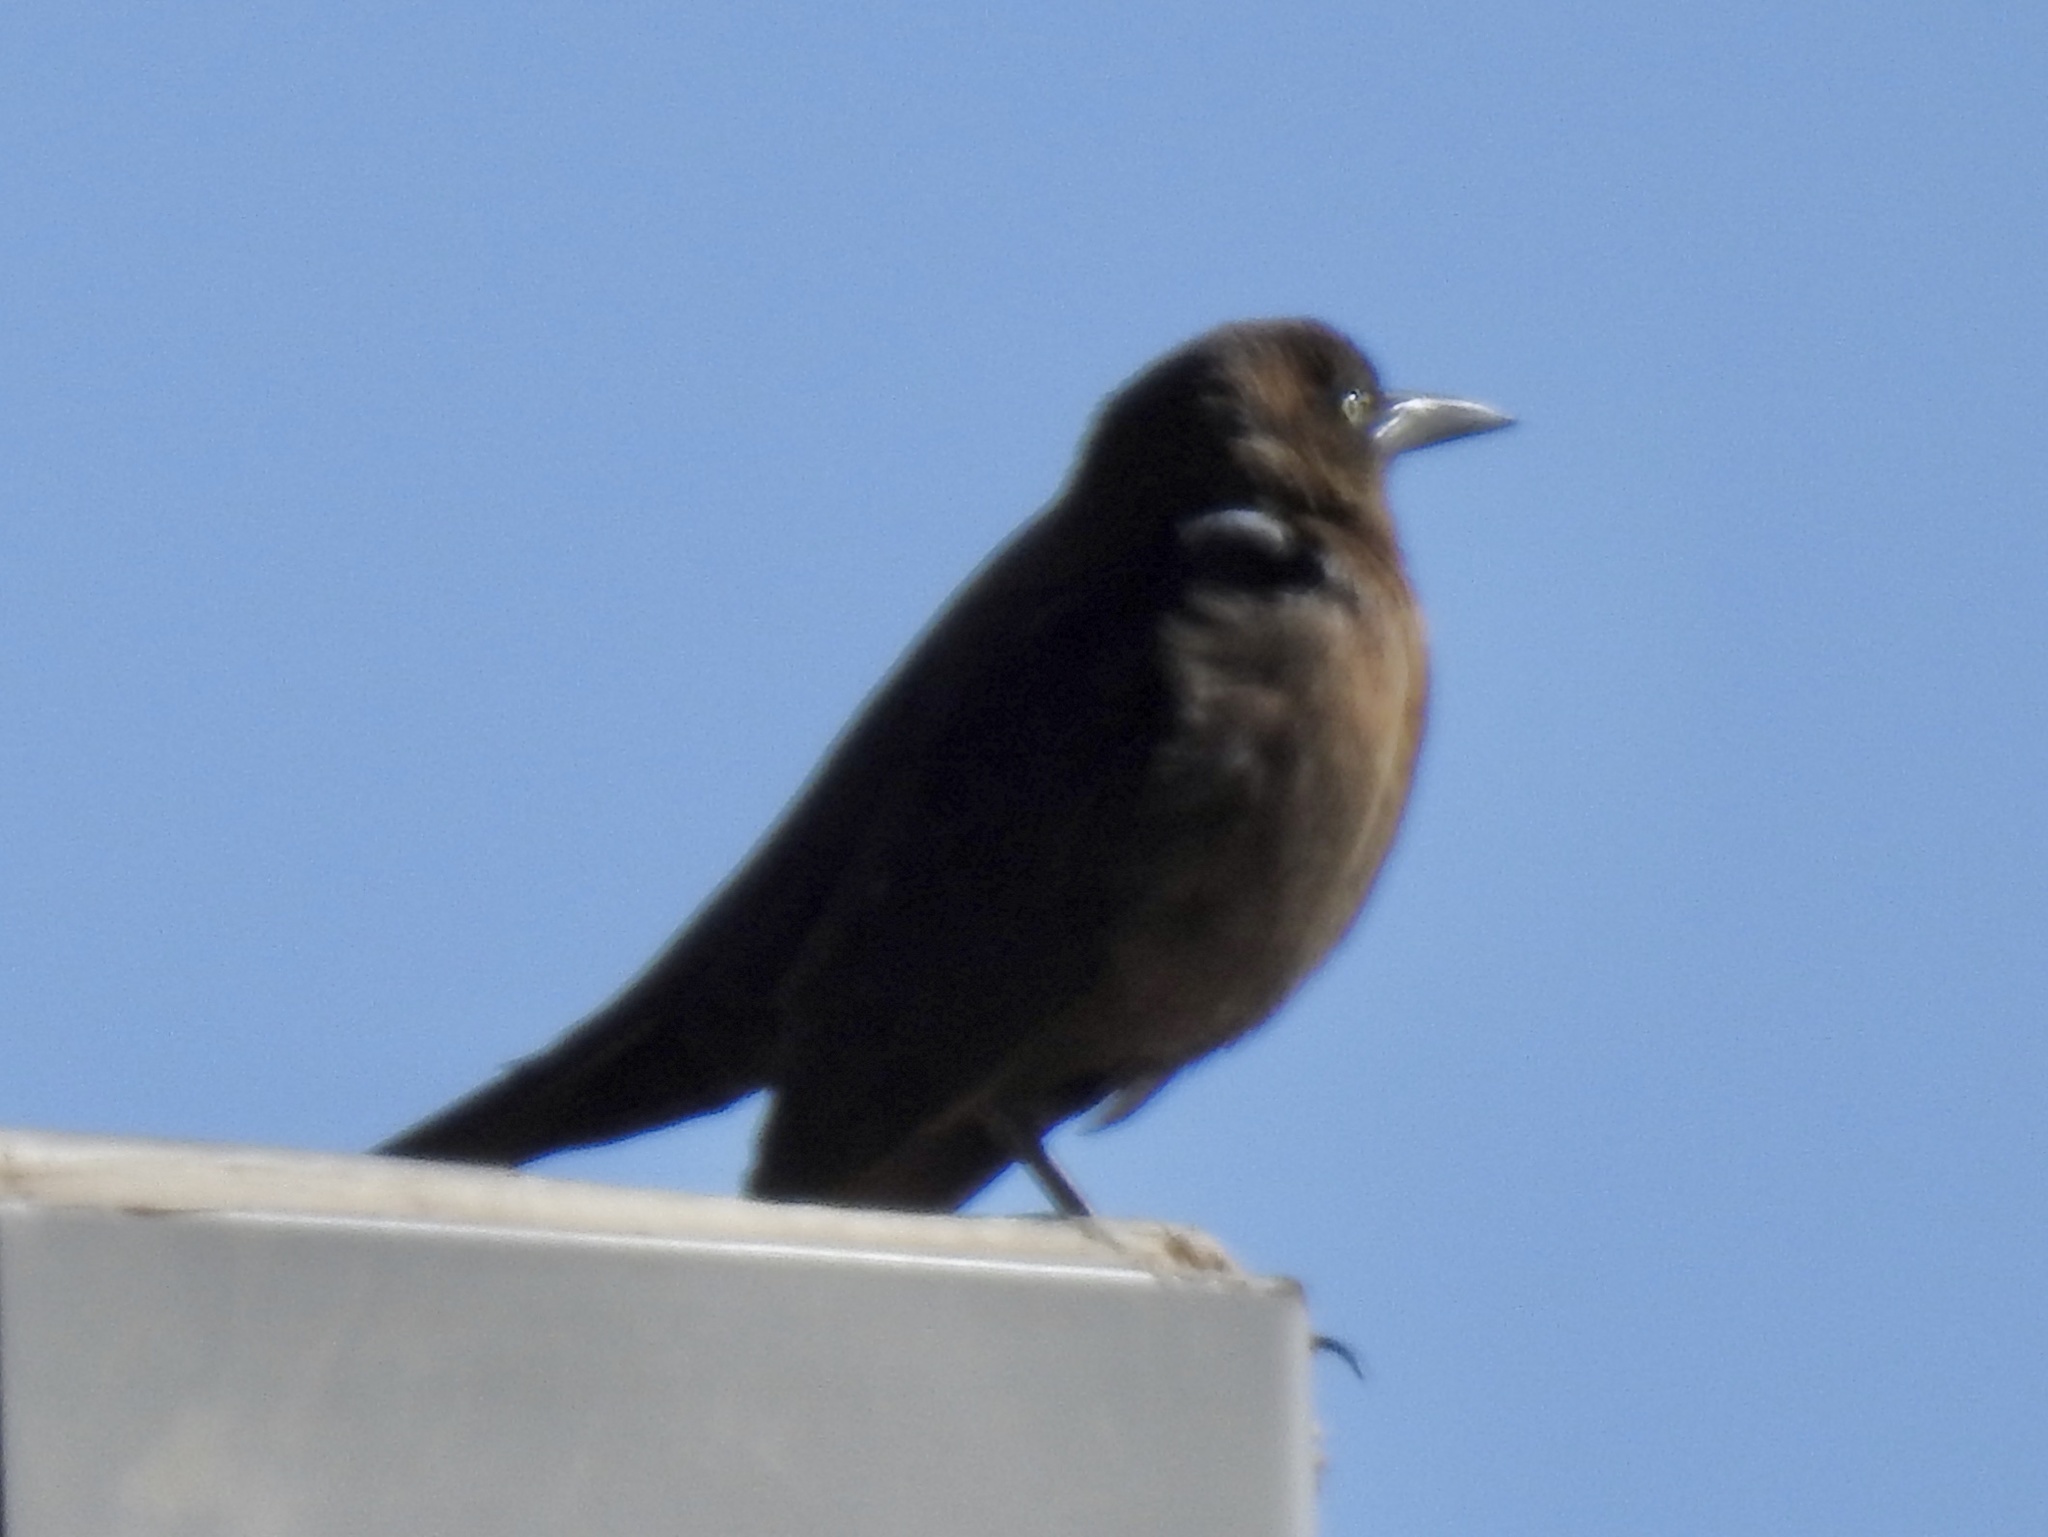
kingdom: Animalia
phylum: Chordata
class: Aves
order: Passeriformes
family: Icteridae
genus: Quiscalus
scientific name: Quiscalus mexicanus
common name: Great-tailed grackle
